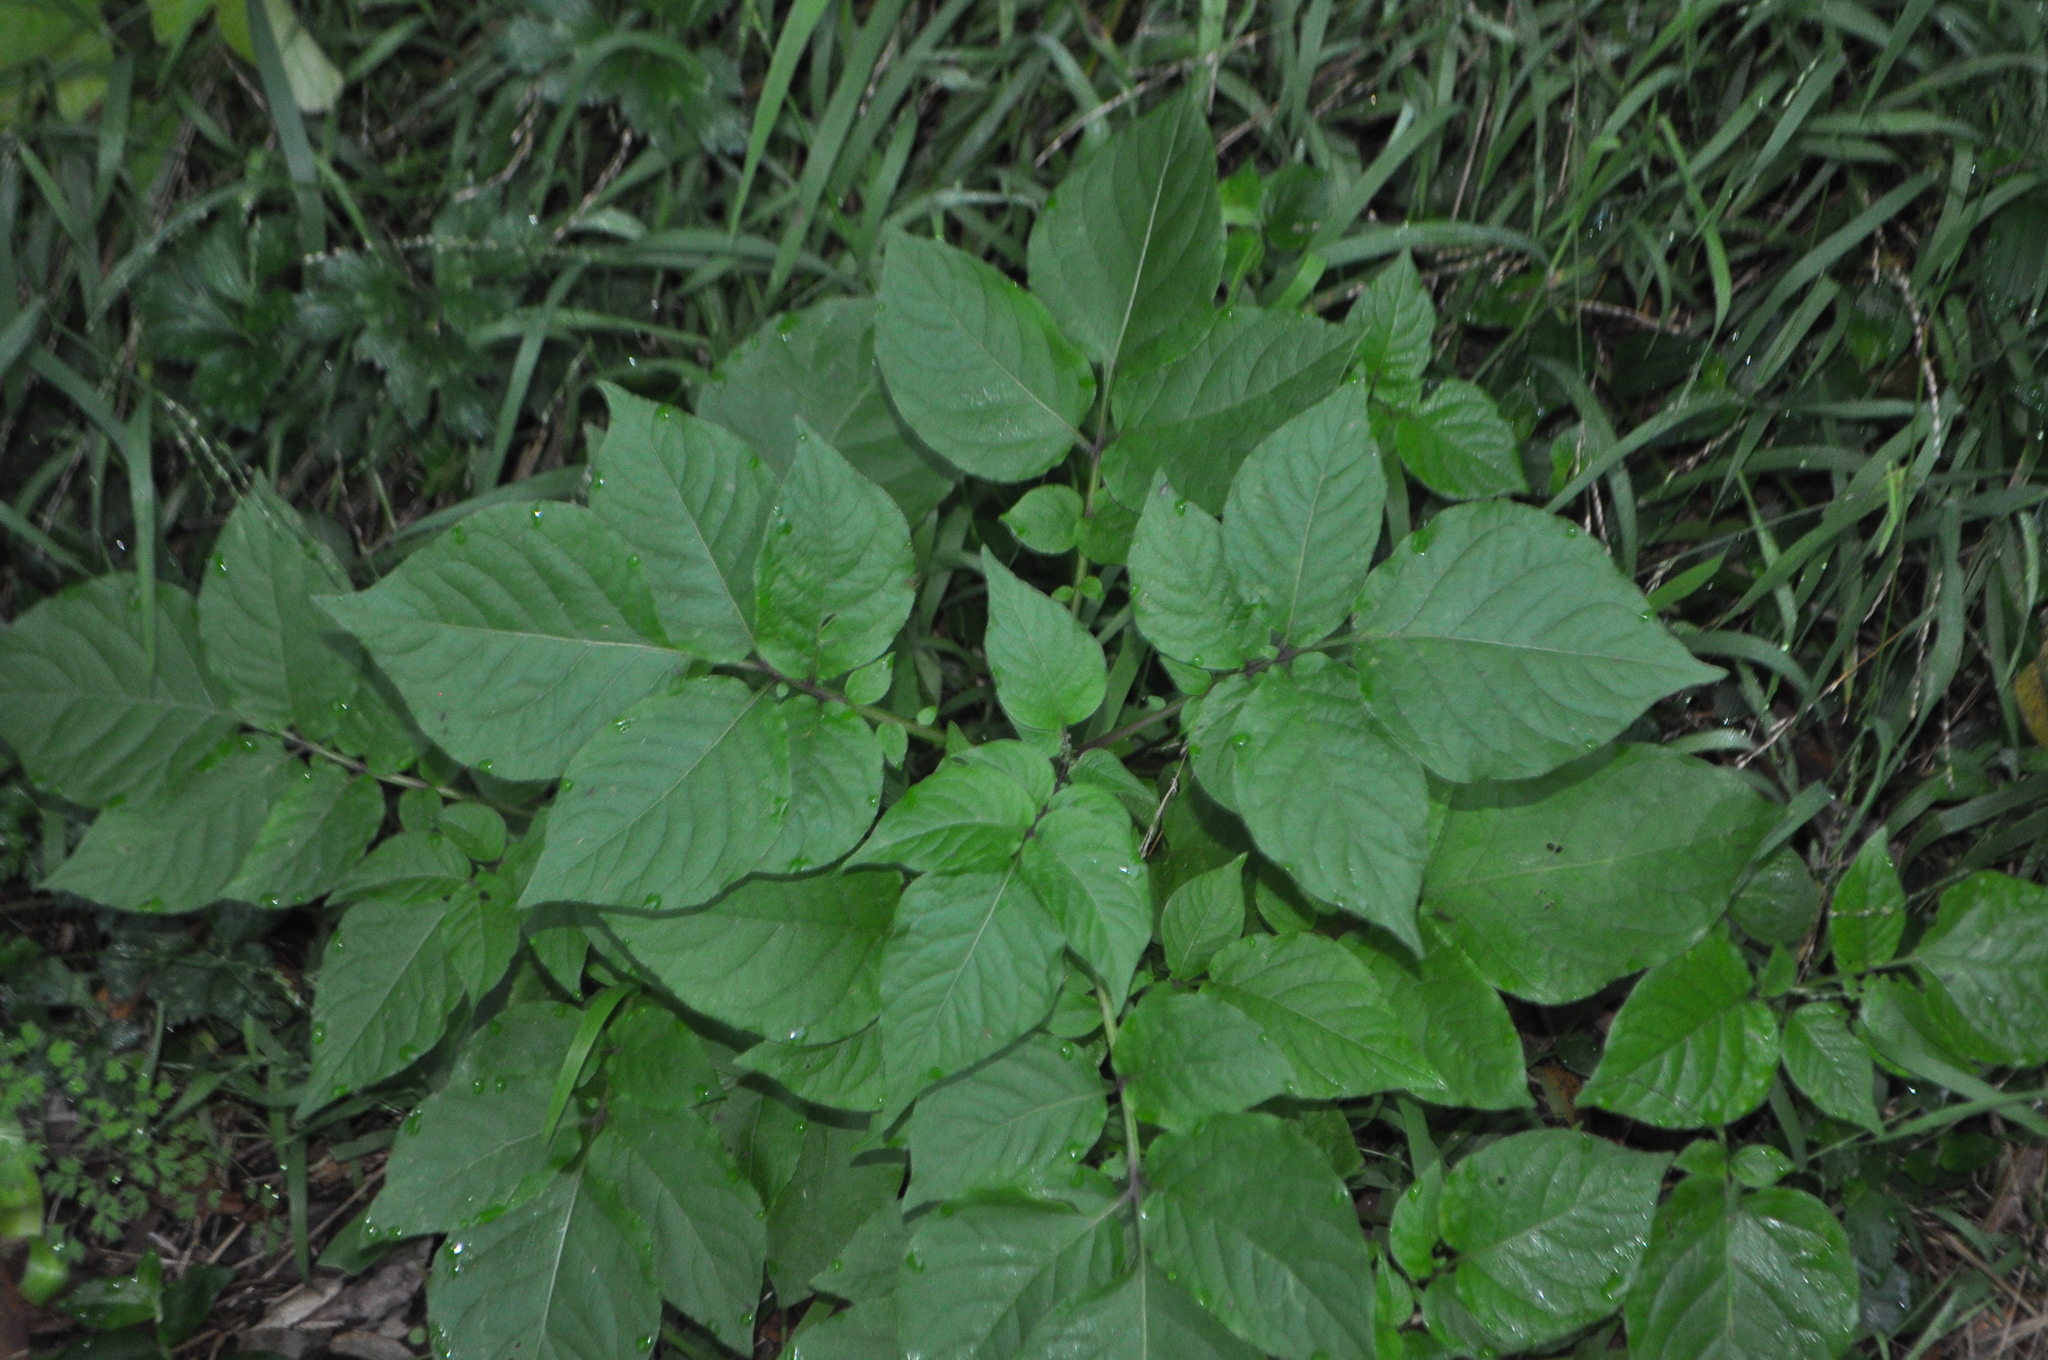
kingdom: Plantae
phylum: Tracheophyta
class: Magnoliopsida
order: Solanales
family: Solanaceae
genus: Solanum
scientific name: Solanum tuberosum
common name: Potato
